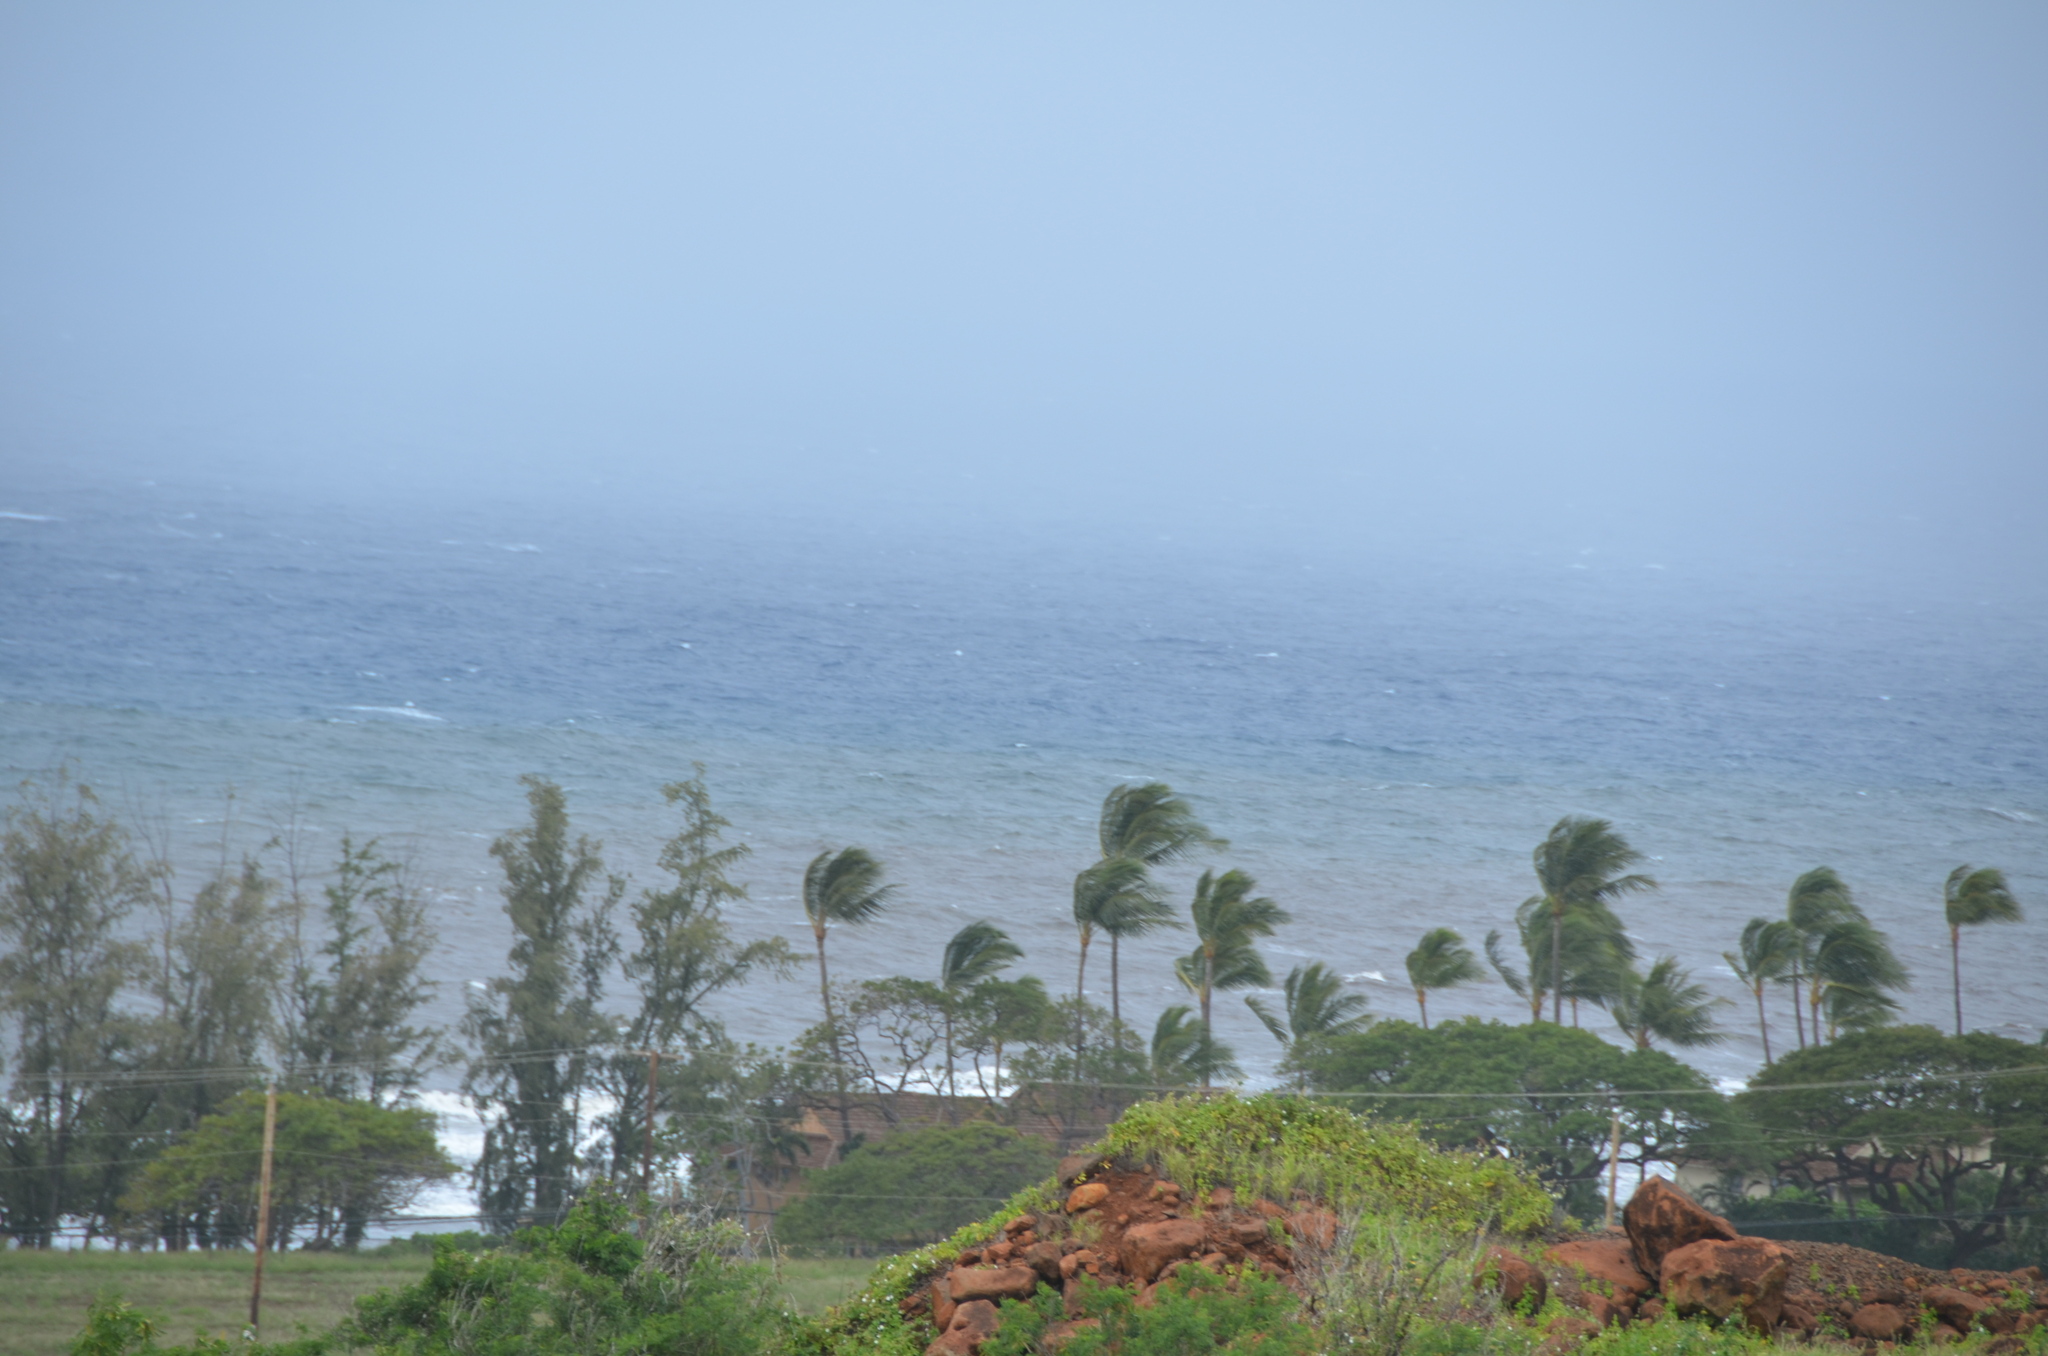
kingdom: Plantae
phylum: Tracheophyta
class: Liliopsida
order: Arecales
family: Arecaceae
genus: Cocos
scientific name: Cocos nucifera
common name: Coconut palm
